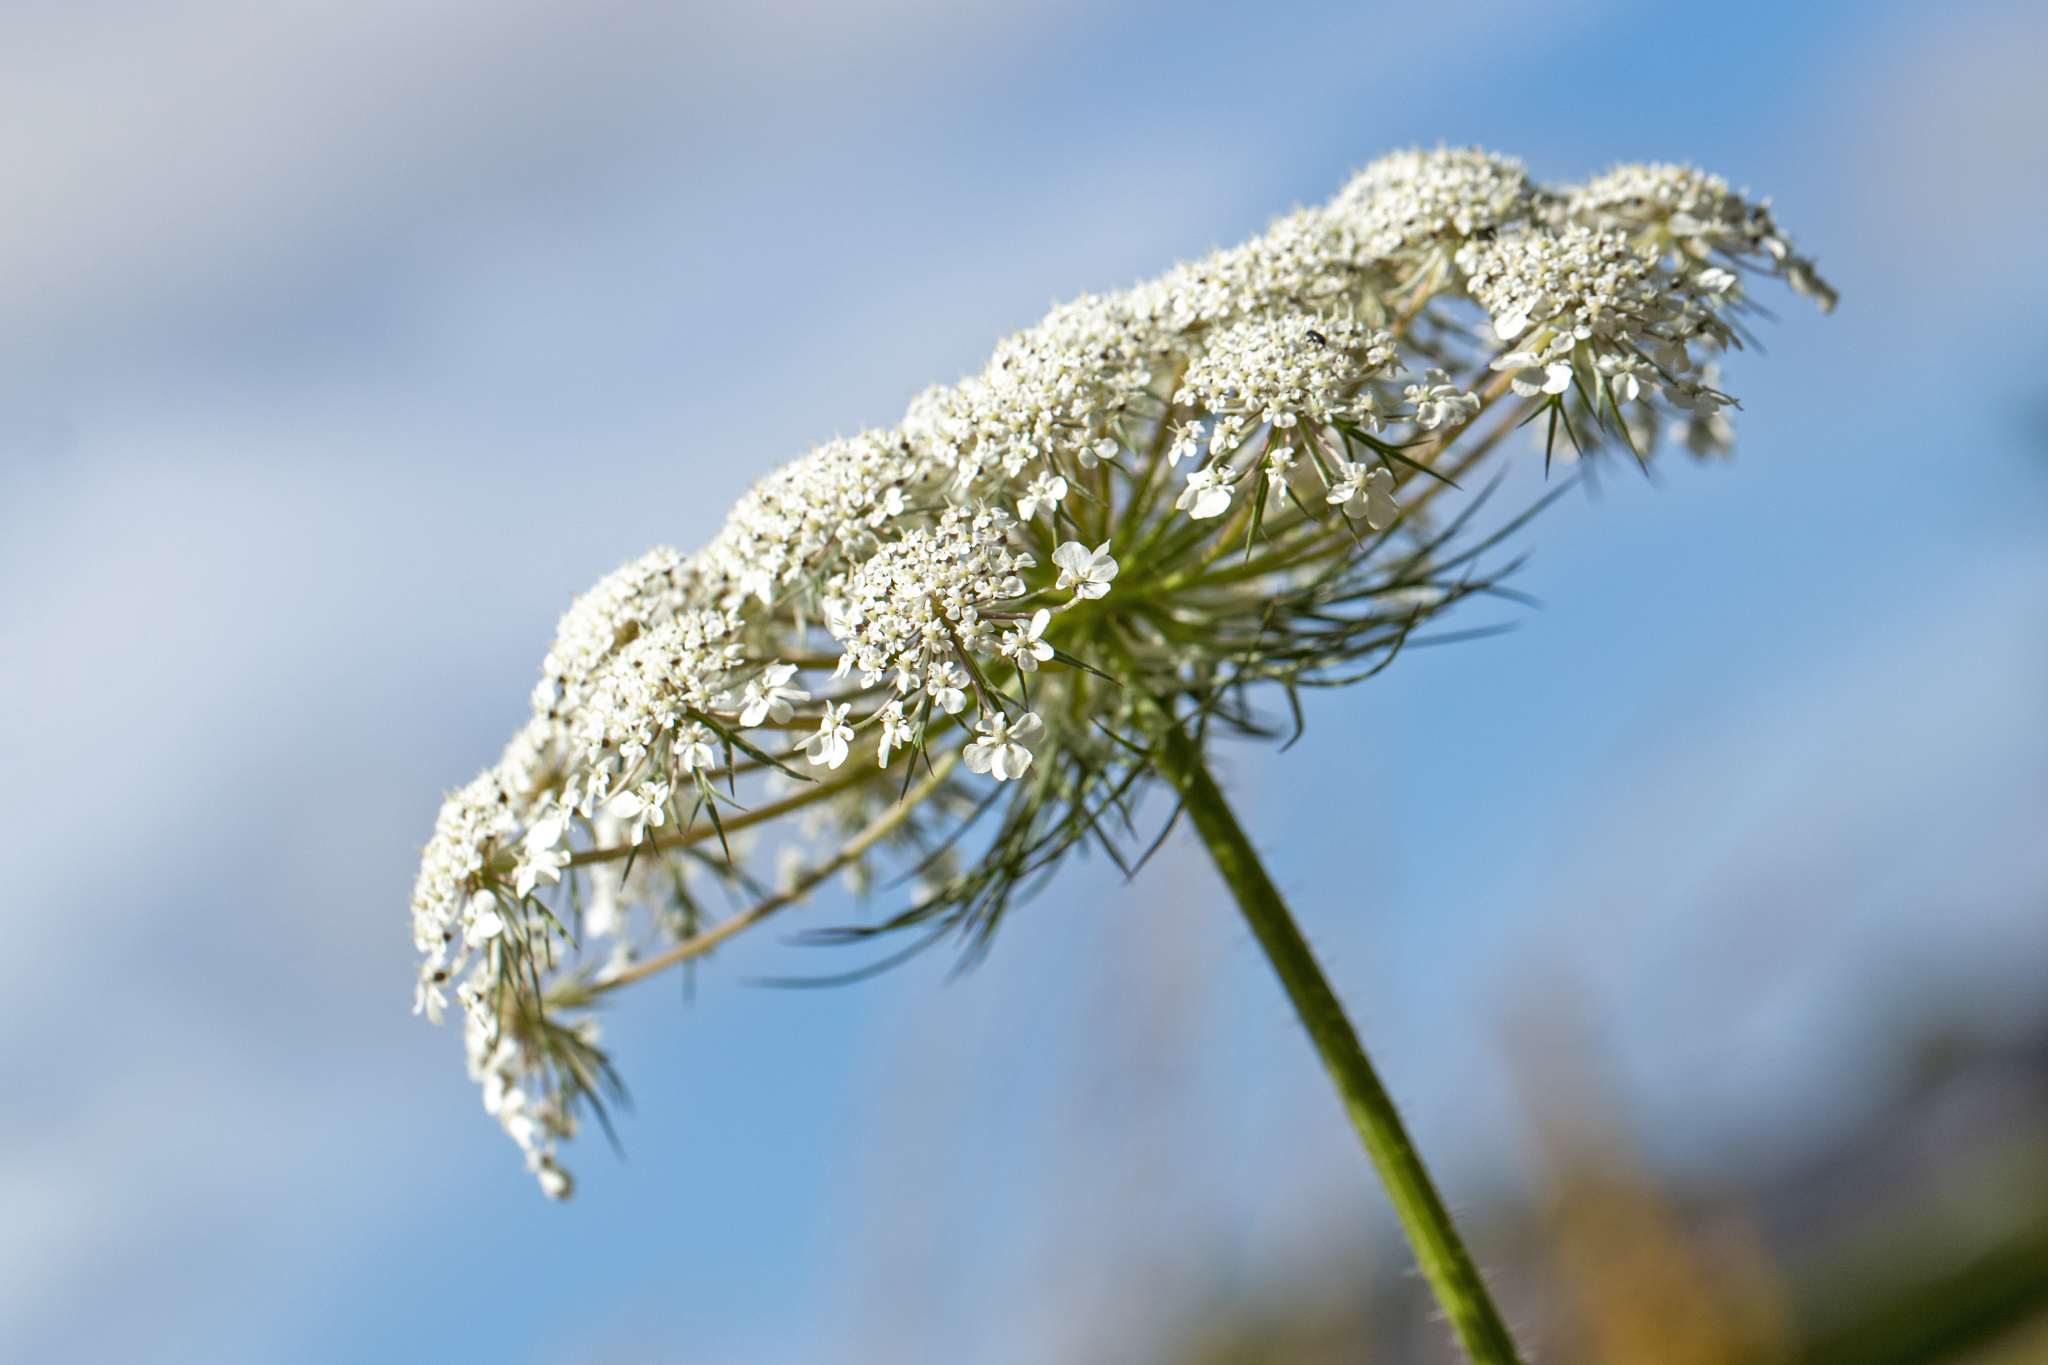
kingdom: Plantae
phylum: Tracheophyta
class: Magnoliopsida
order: Apiales
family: Apiaceae
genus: Daucus
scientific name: Daucus carota
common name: Wild carrot
